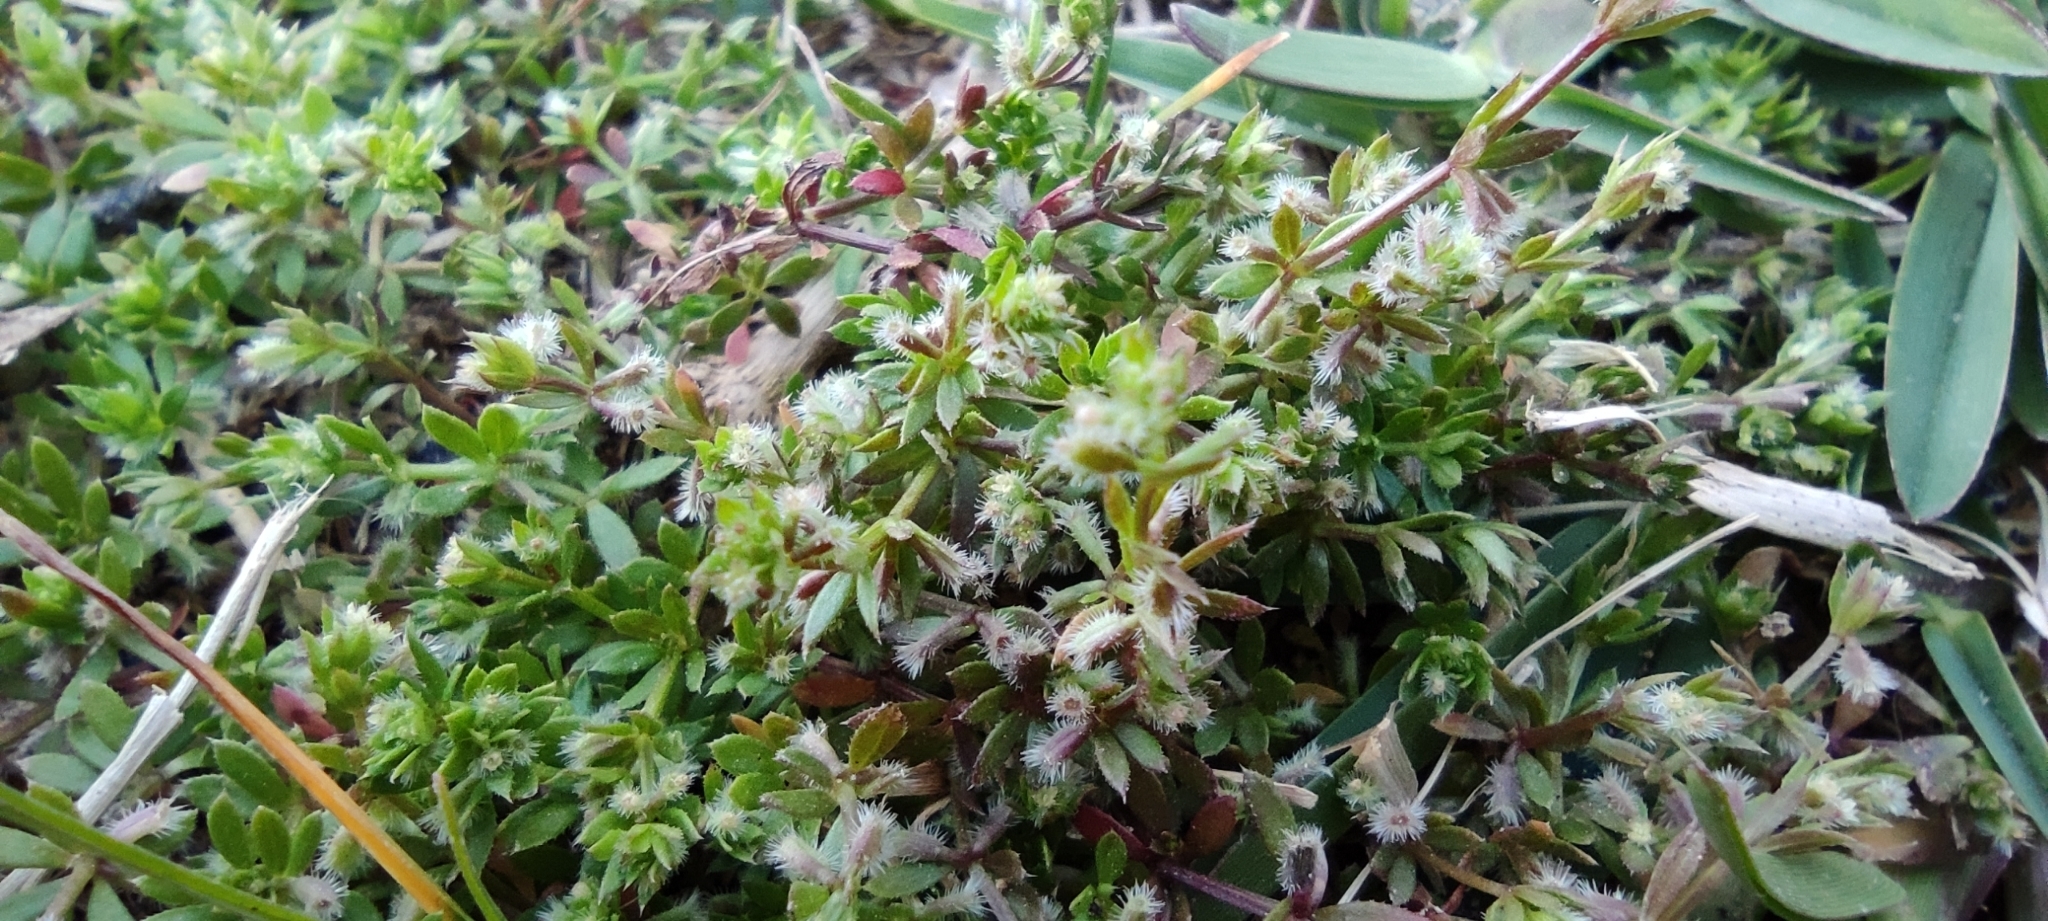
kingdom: Plantae
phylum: Tracheophyta
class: Magnoliopsida
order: Gentianales
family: Rubiaceae
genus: Galium
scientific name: Galium murale
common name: Yellow wall bedstraw
